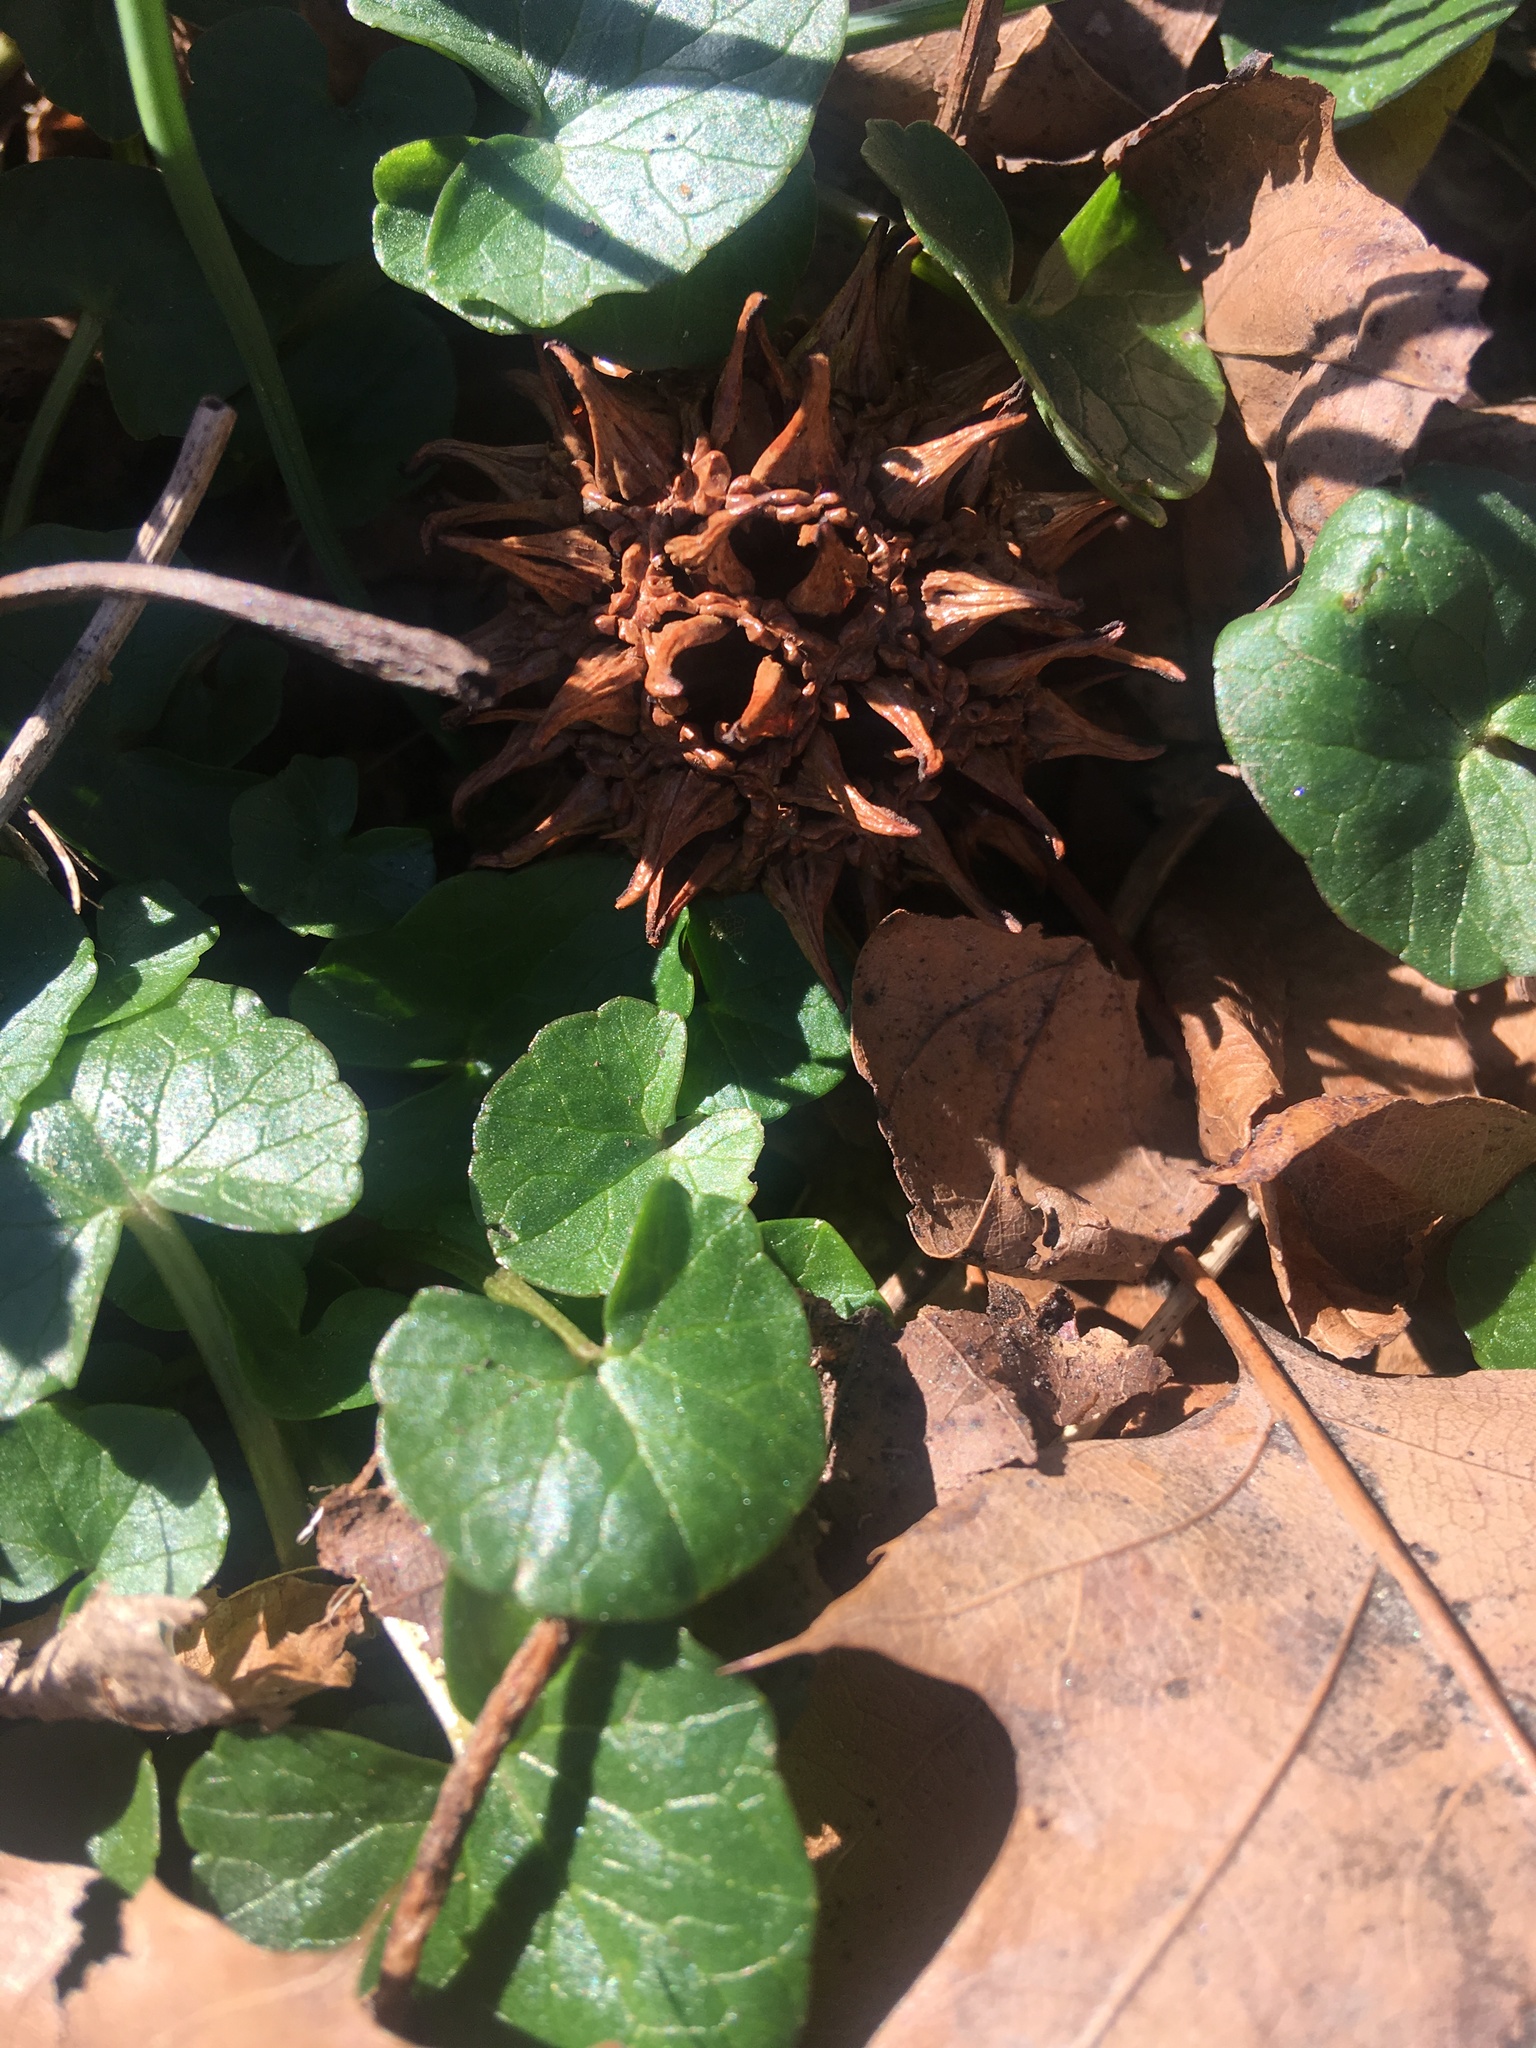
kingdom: Plantae
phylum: Tracheophyta
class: Magnoliopsida
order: Ranunculales
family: Ranunculaceae
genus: Ficaria
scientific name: Ficaria verna
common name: Lesser celandine
